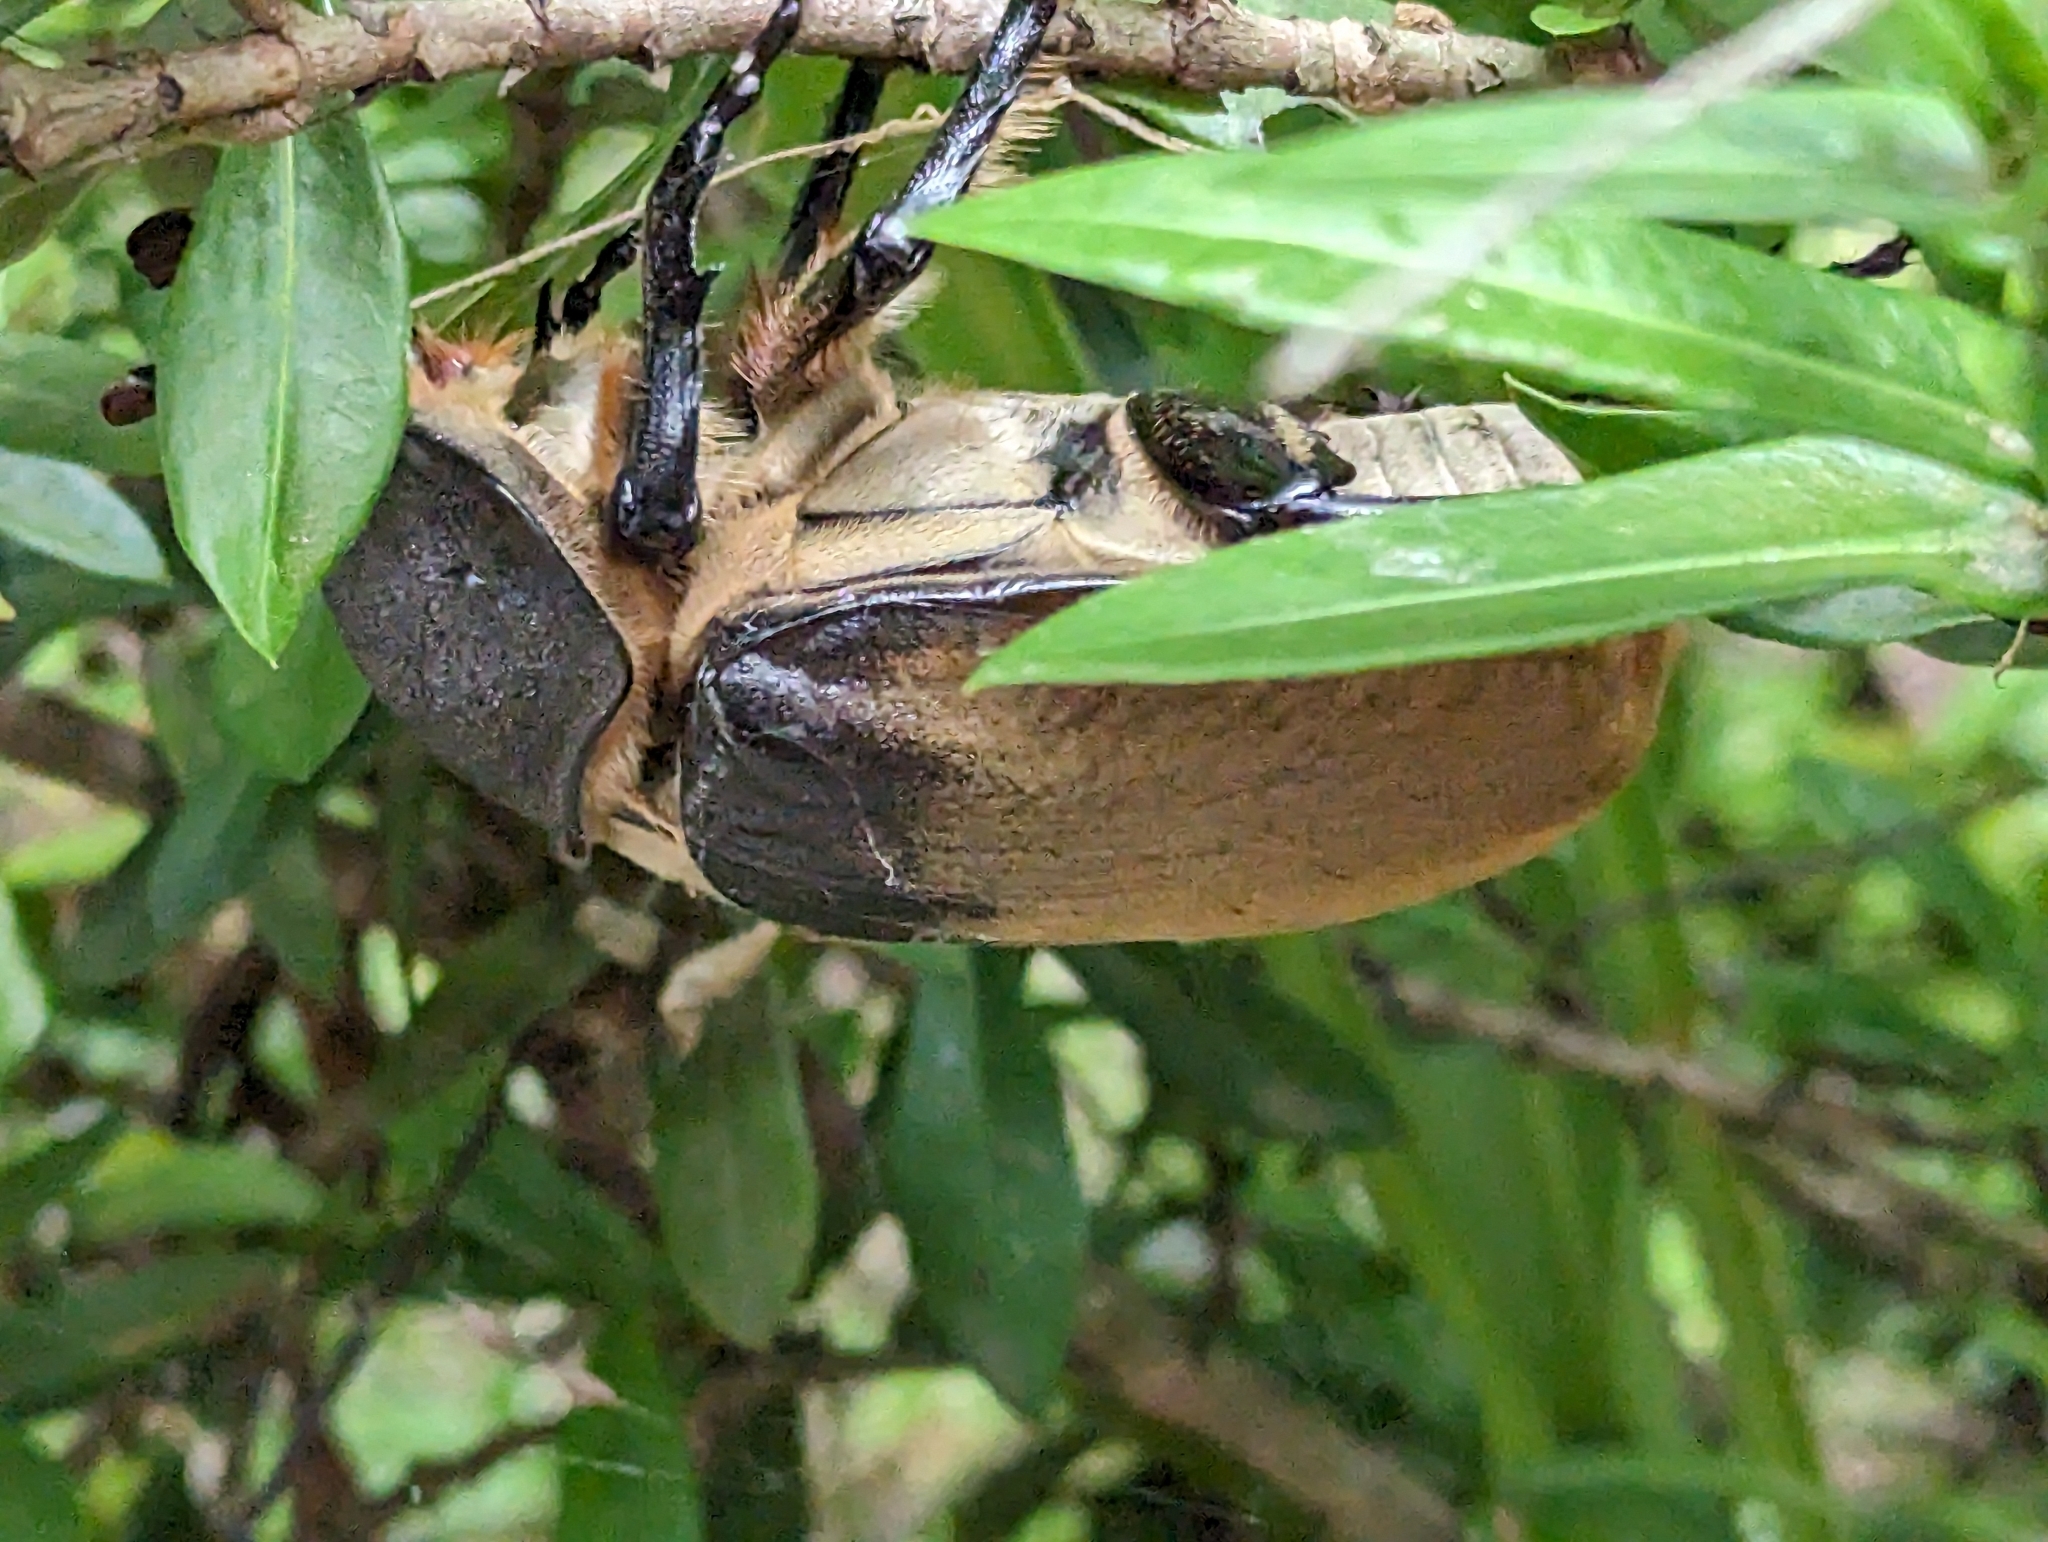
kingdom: Animalia
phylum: Arthropoda
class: Insecta
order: Coleoptera
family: Scarabaeidae
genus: Megasoma
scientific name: Megasoma elephas
